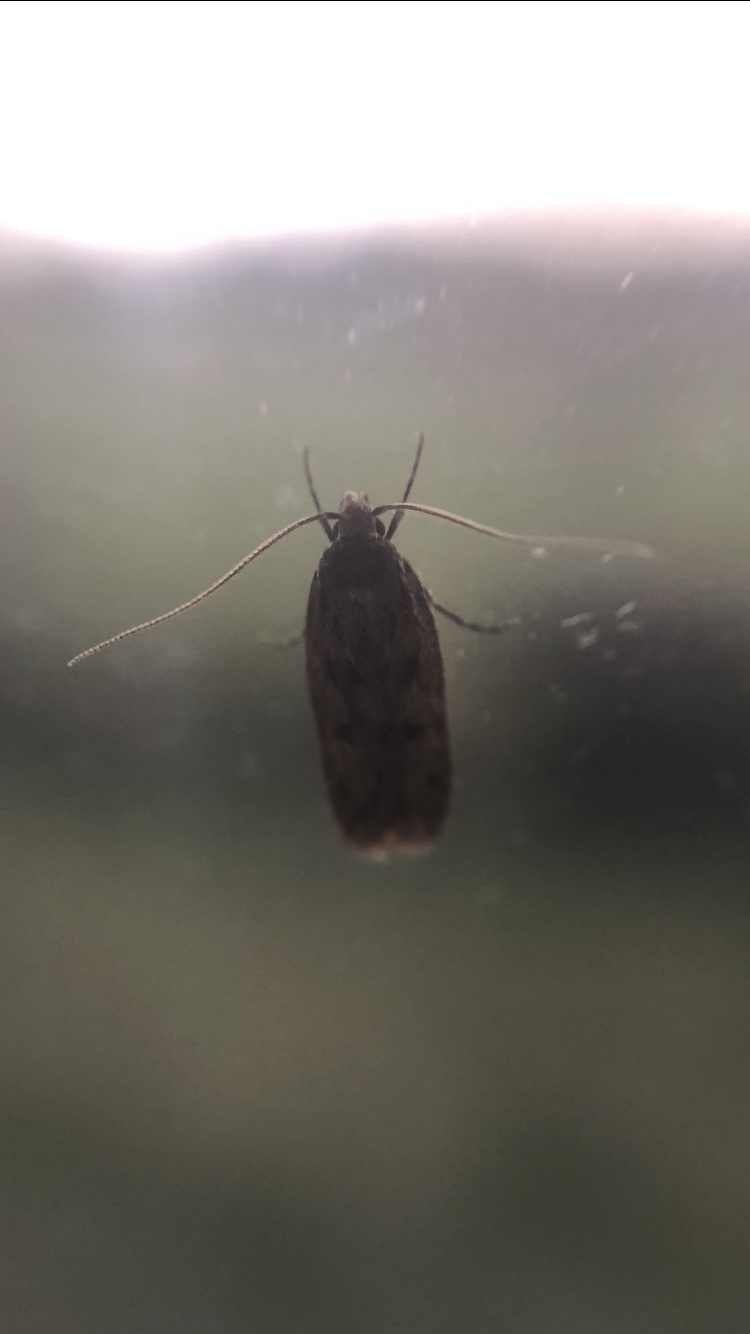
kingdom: Animalia
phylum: Arthropoda
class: Insecta
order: Lepidoptera
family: Oecophoridae
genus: Hofmannophila
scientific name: Hofmannophila pseudospretella
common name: Brown house moth
